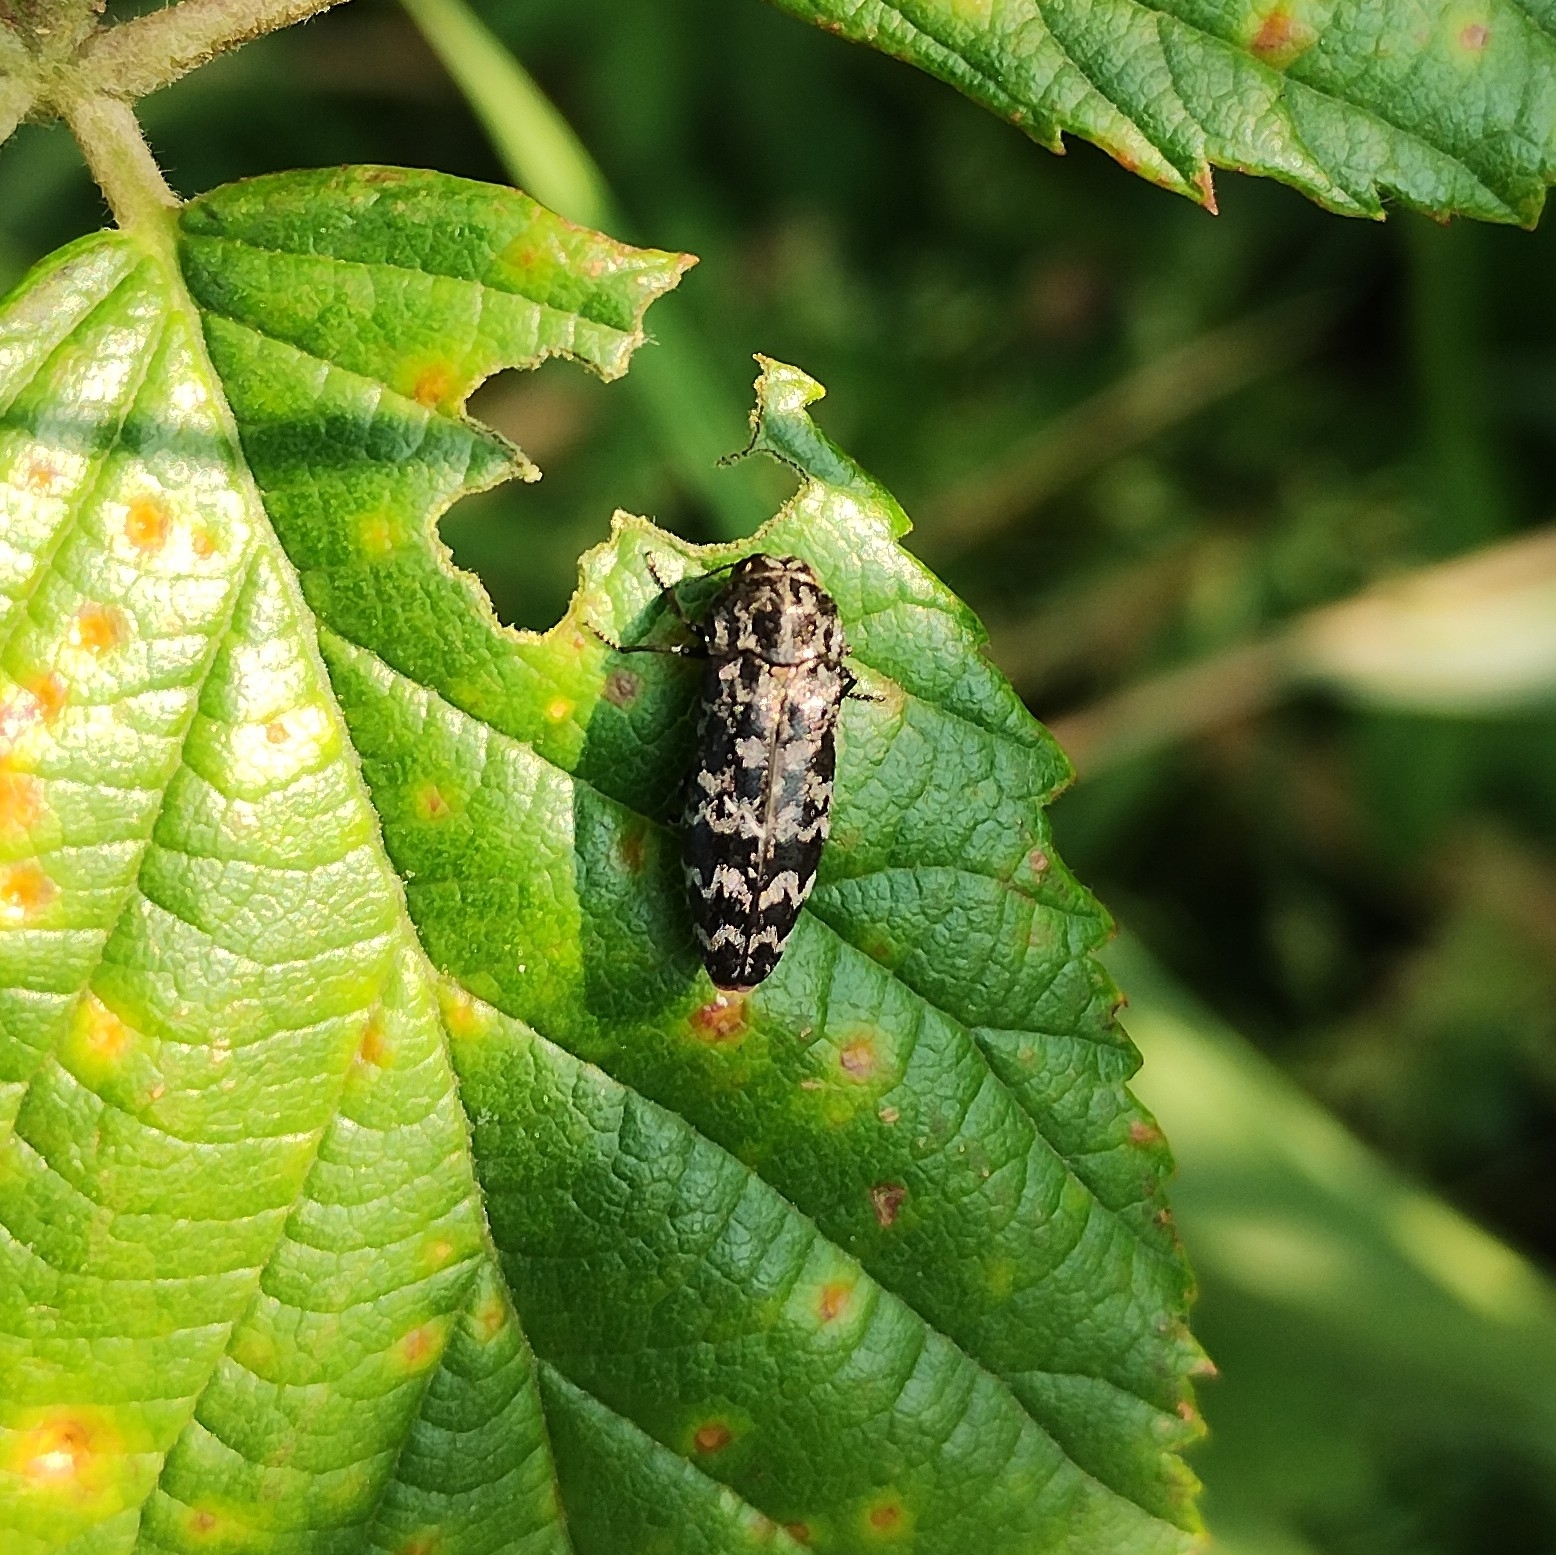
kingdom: Animalia
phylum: Arthropoda
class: Insecta
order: Coleoptera
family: Buprestidae
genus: Coraebus
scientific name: Coraebus rubi
